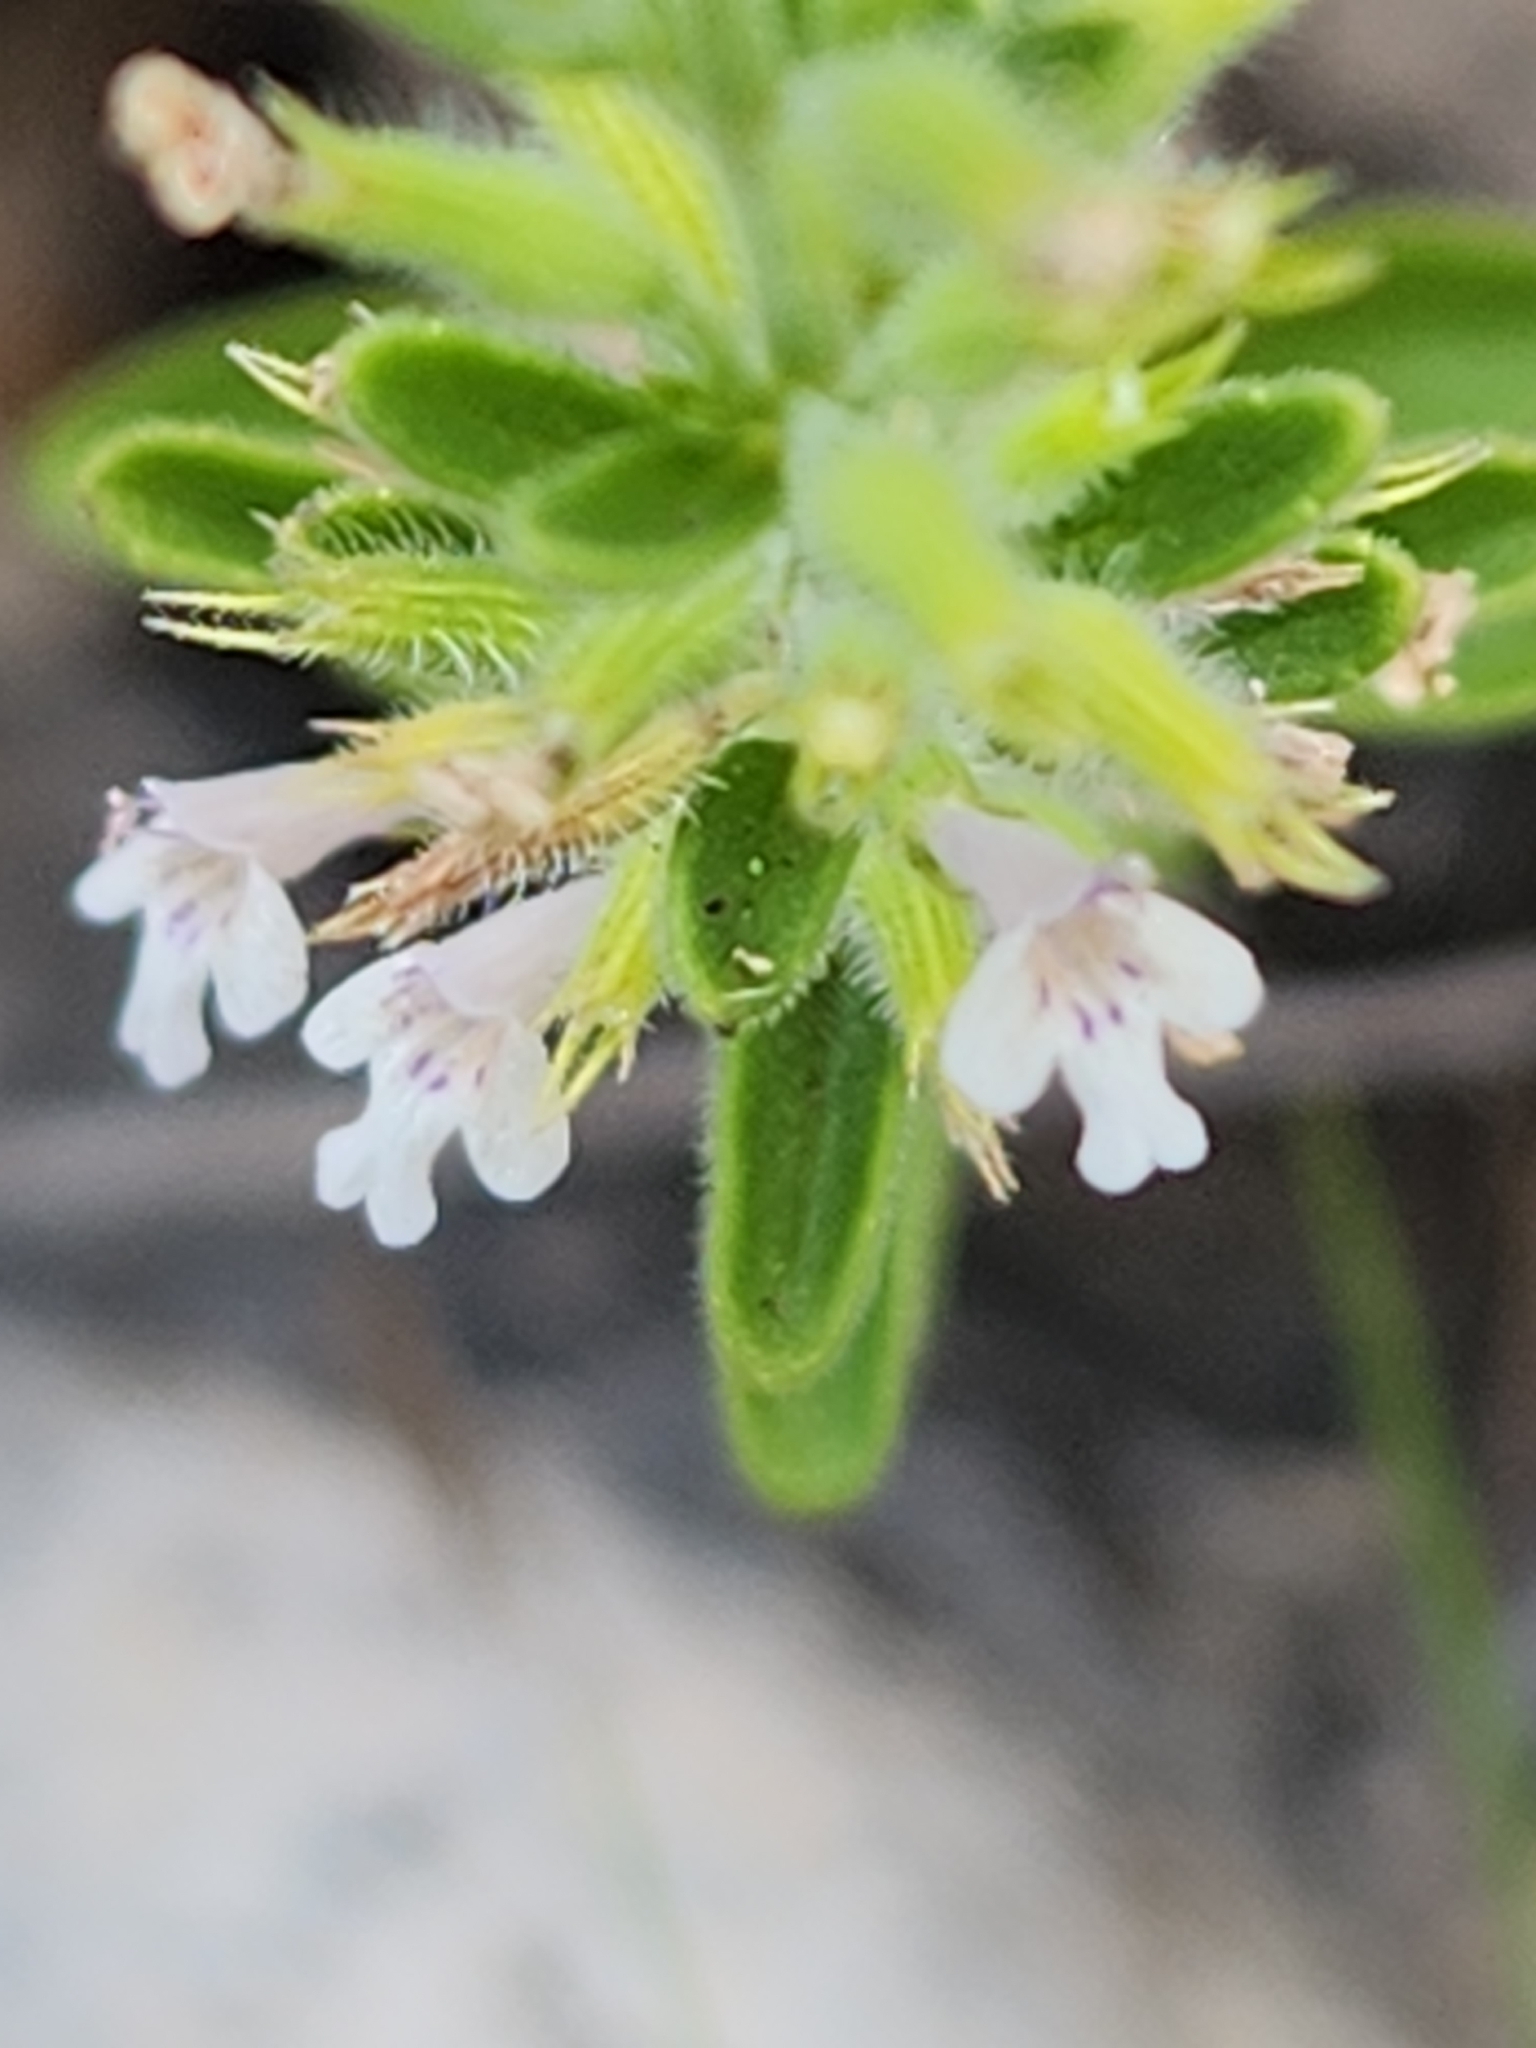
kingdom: Plantae
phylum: Tracheophyta
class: Magnoliopsida
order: Lamiales
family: Lamiaceae
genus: Hedeoma
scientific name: Hedeoma reverchonii
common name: Reverchon's false penny-royal
